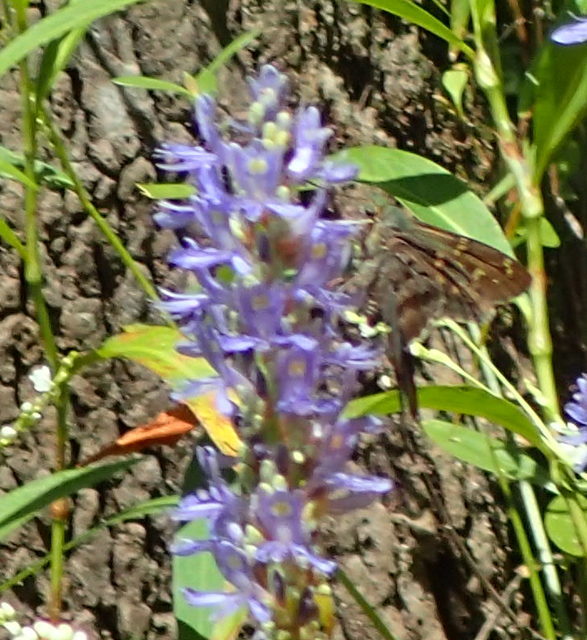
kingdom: Animalia
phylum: Arthropoda
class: Insecta
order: Lepidoptera
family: Hesperiidae
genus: Urbanus
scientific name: Urbanus proteus
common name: Long-tailed skipper
